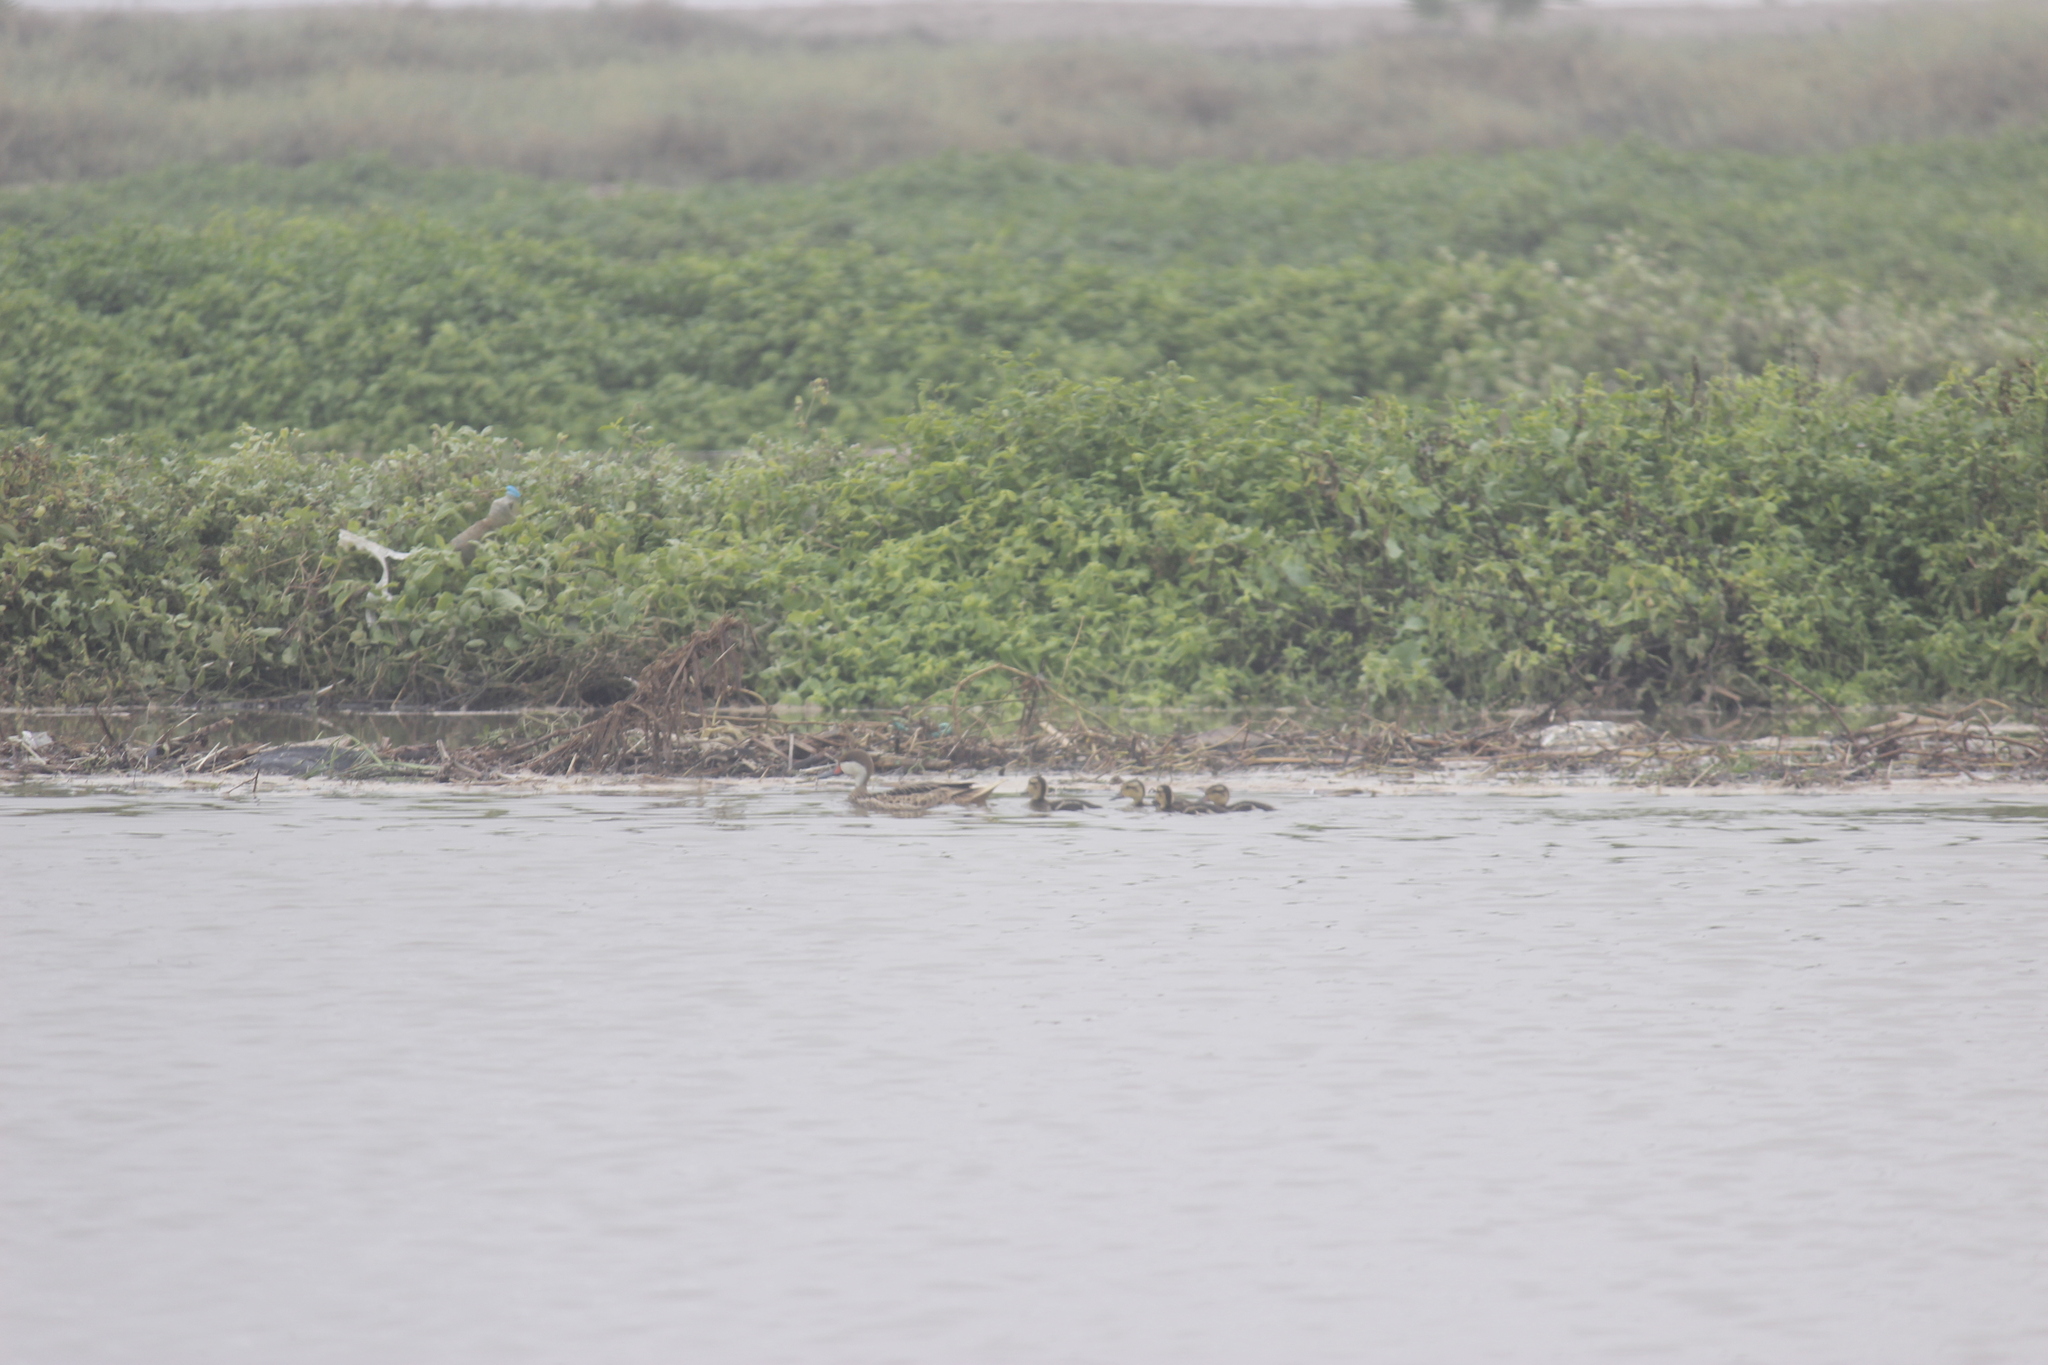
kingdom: Animalia
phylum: Chordata
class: Aves
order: Anseriformes
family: Anatidae
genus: Anas
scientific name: Anas bahamensis
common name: White-cheeked pintail
